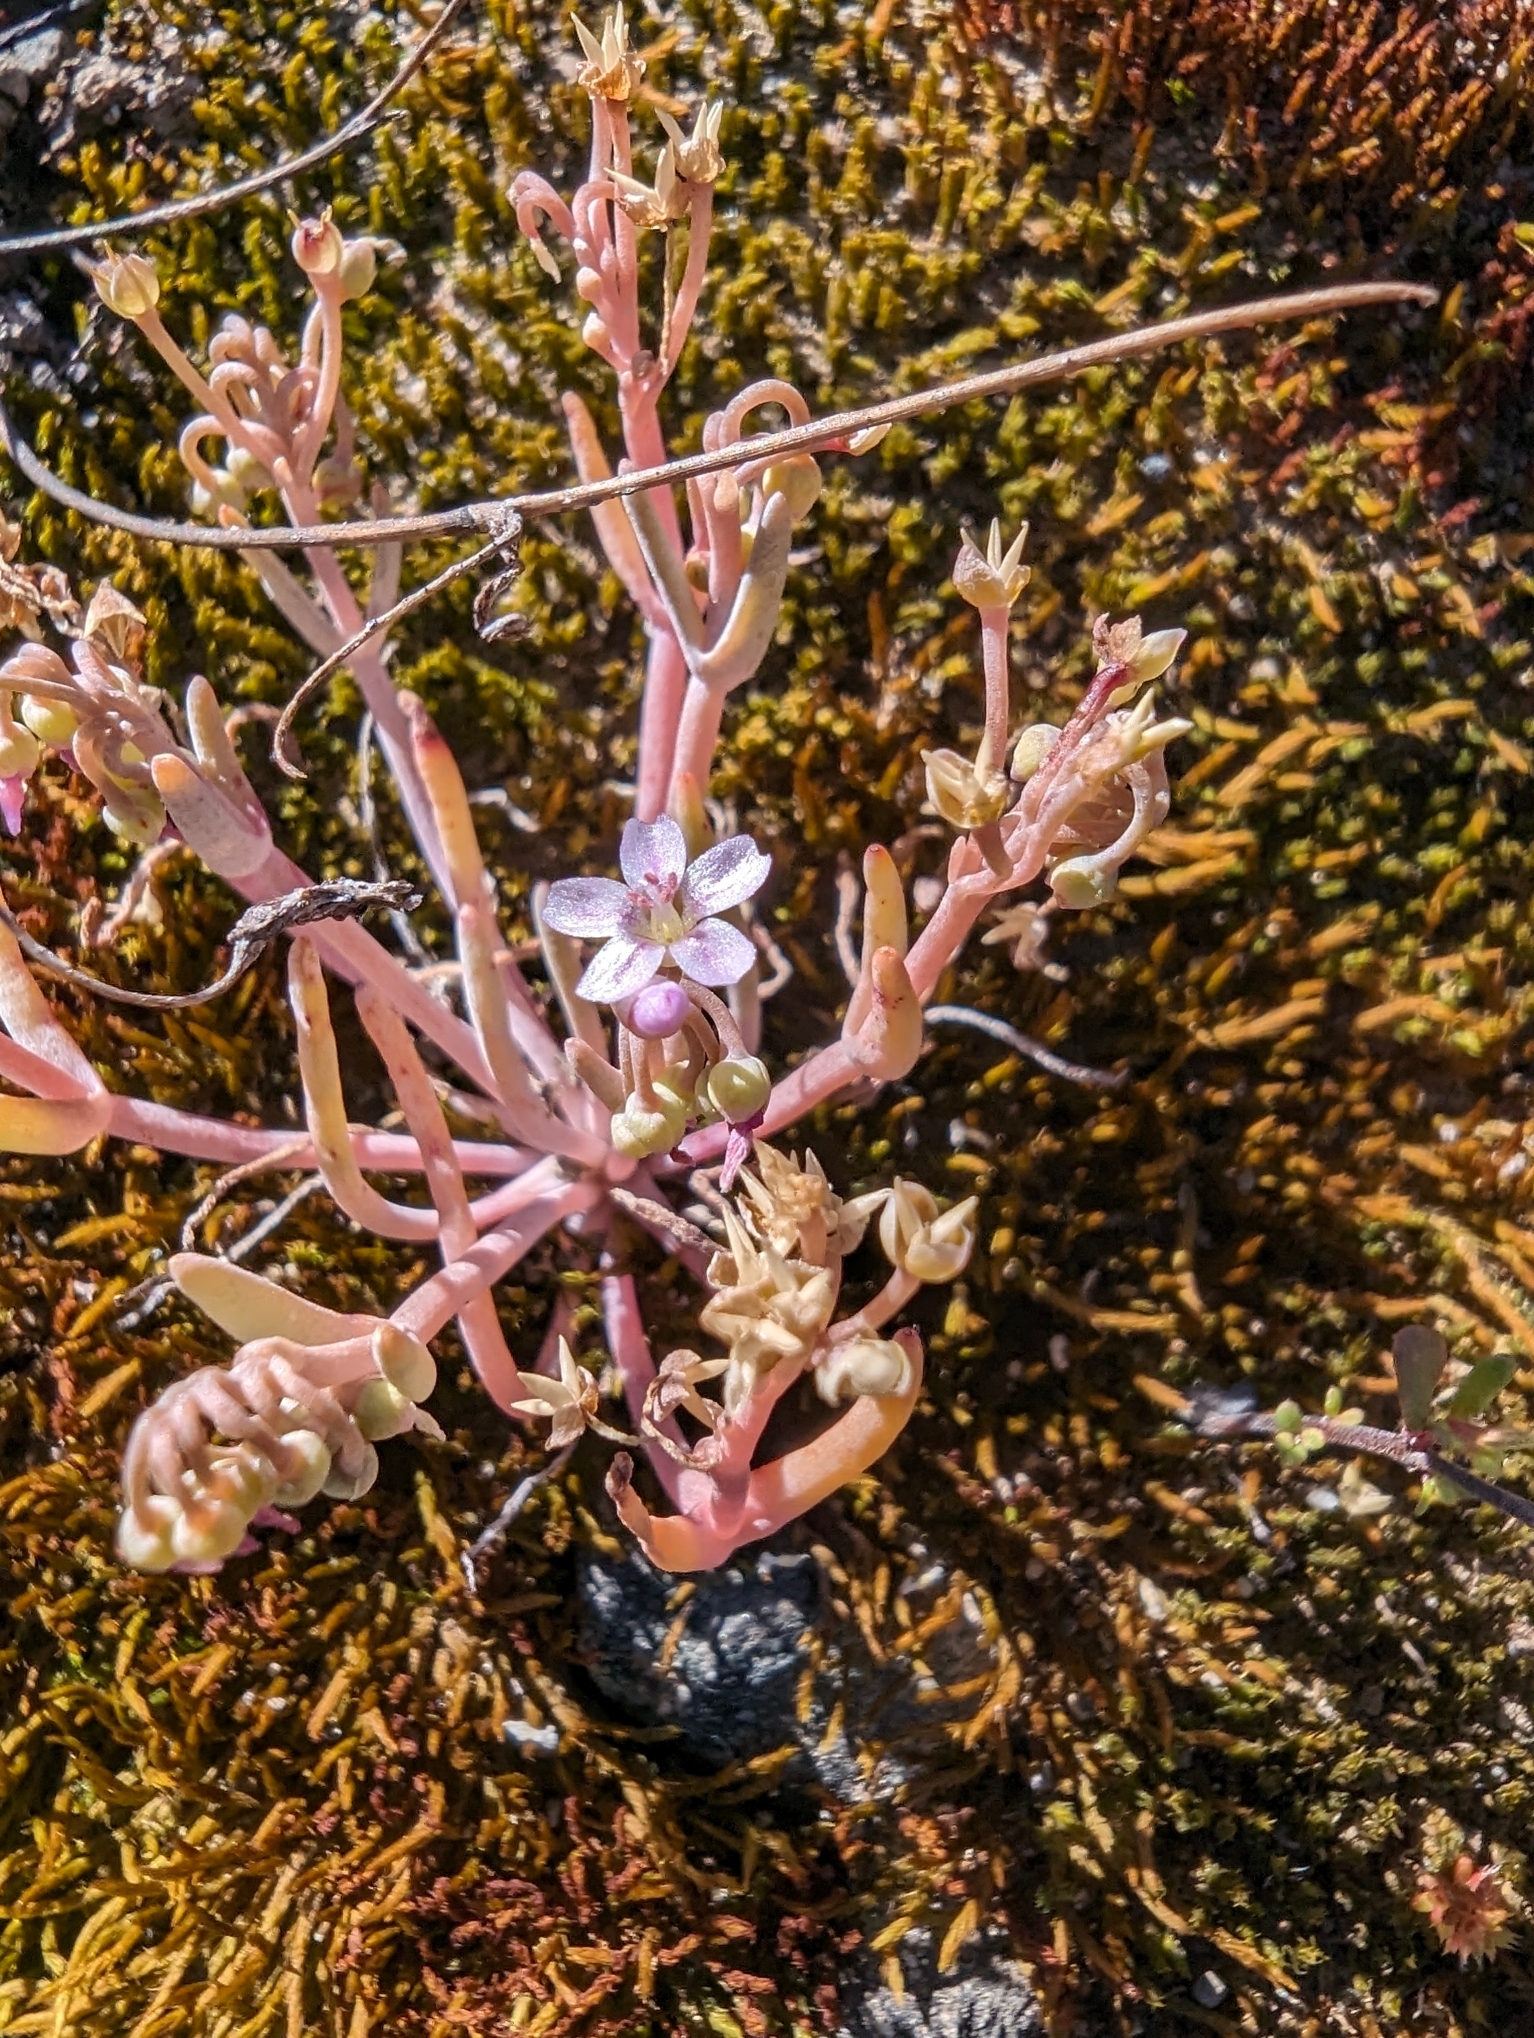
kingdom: Plantae
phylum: Tracheophyta
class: Magnoliopsida
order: Caryophyllales
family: Montiaceae
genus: Claytonia
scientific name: Claytonia exigua
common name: Pale spring beauty
